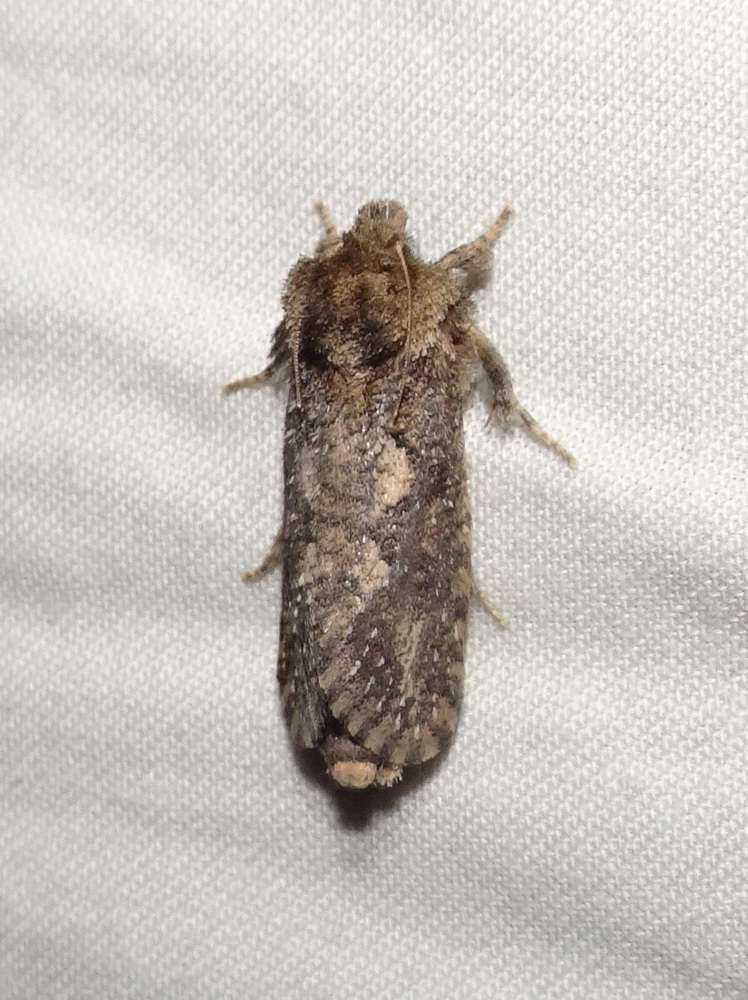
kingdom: Animalia
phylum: Arthropoda
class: Insecta
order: Lepidoptera
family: Tineidae
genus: Acrolophus
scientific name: Acrolophus arcanella
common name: Arcane grass tubeworm moth
